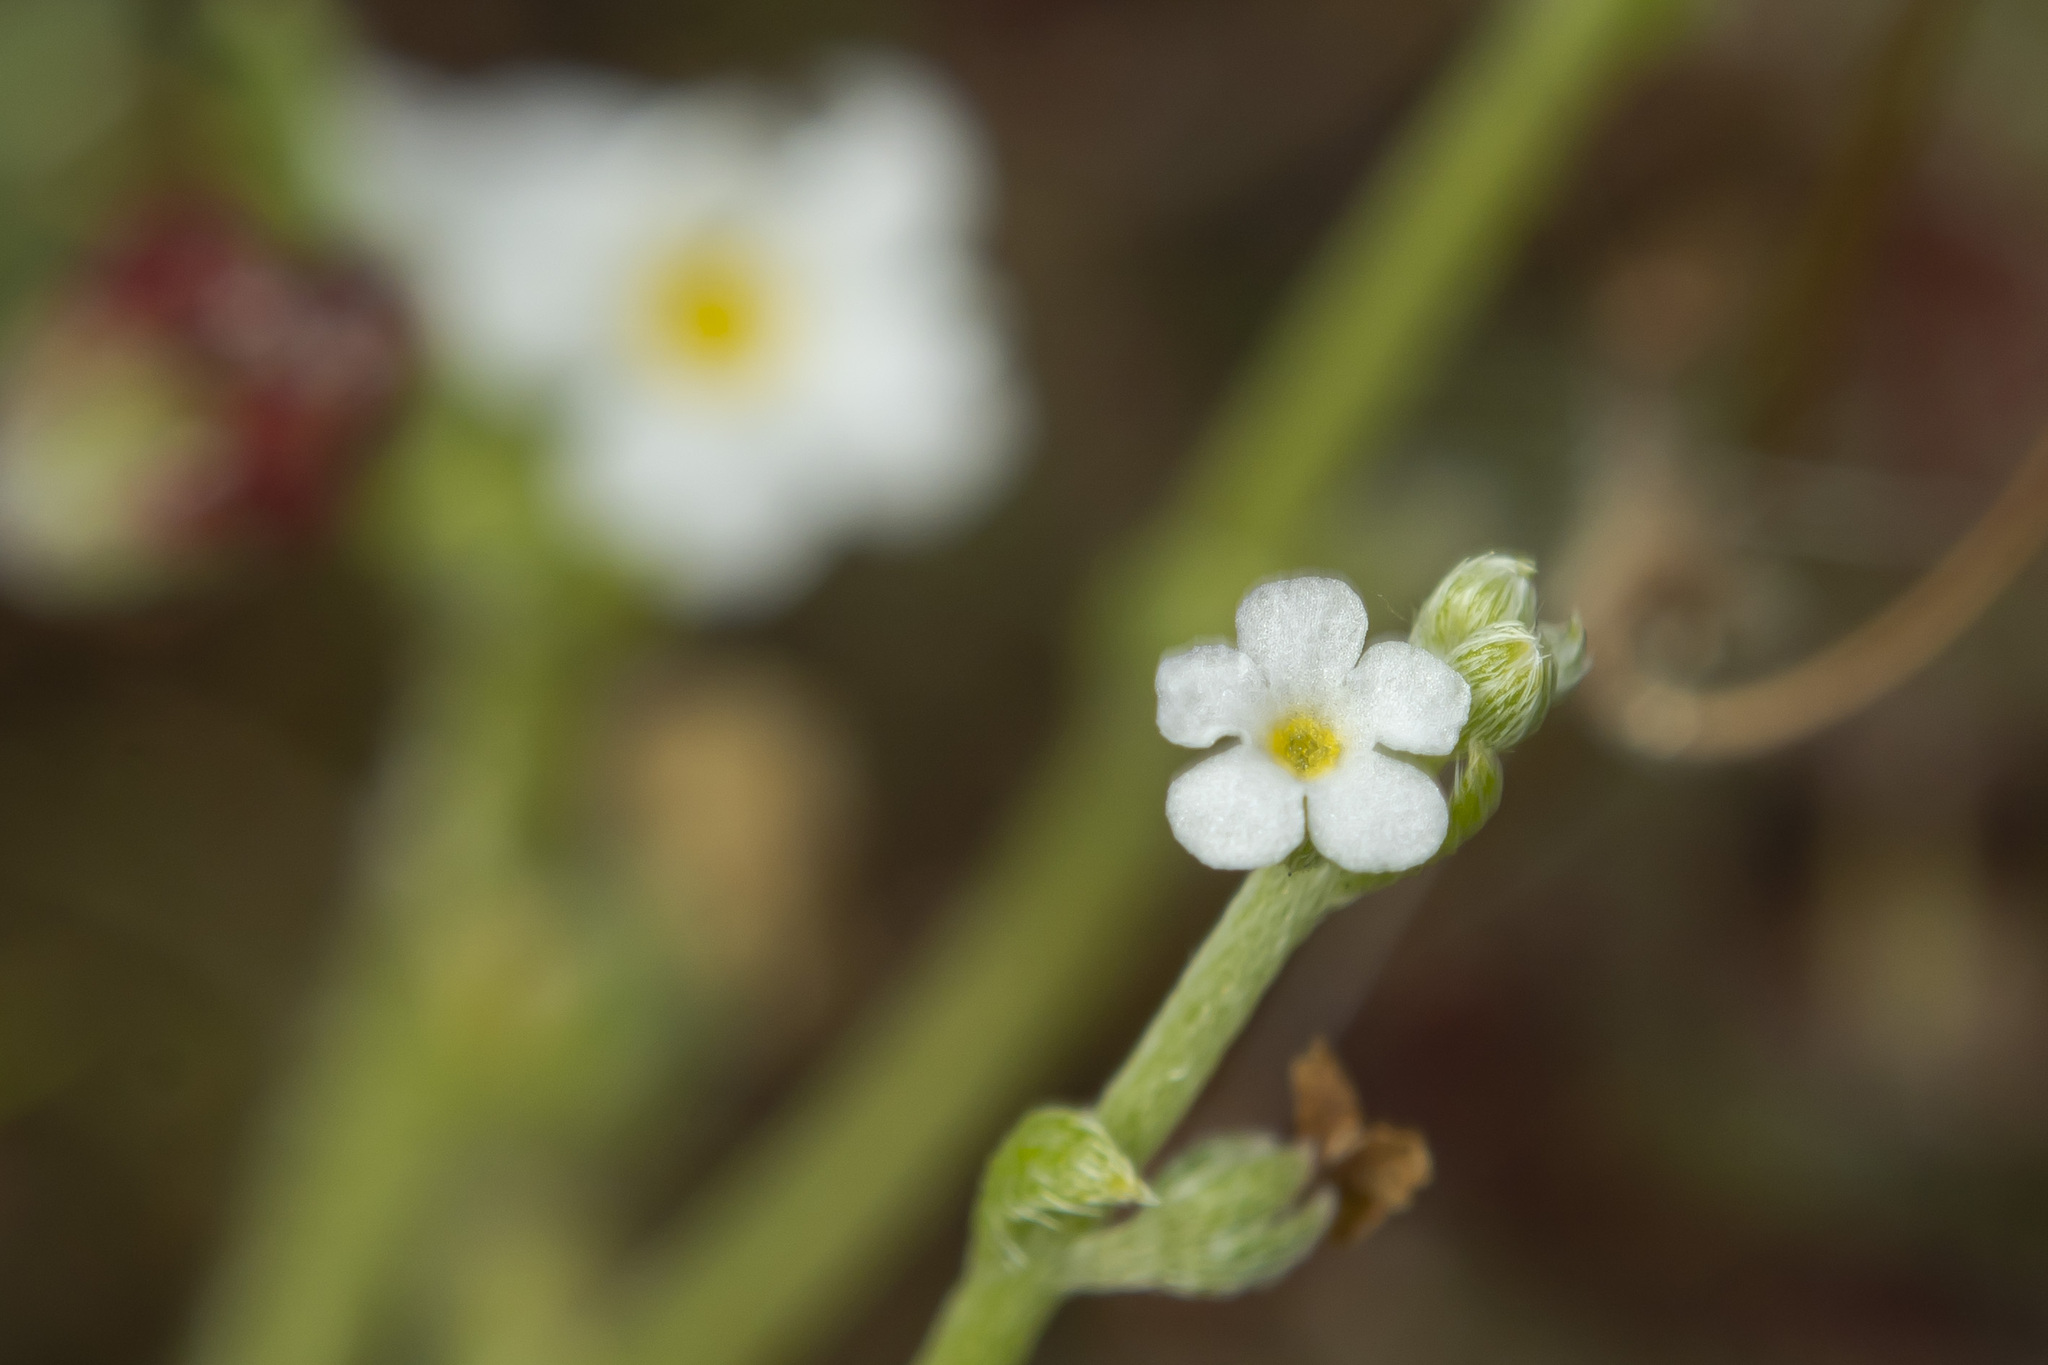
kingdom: Plantae
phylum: Tracheophyta
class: Magnoliopsida
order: Boraginales
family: Boraginaceae
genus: Pectocarya
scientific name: Pectocarya linearis
